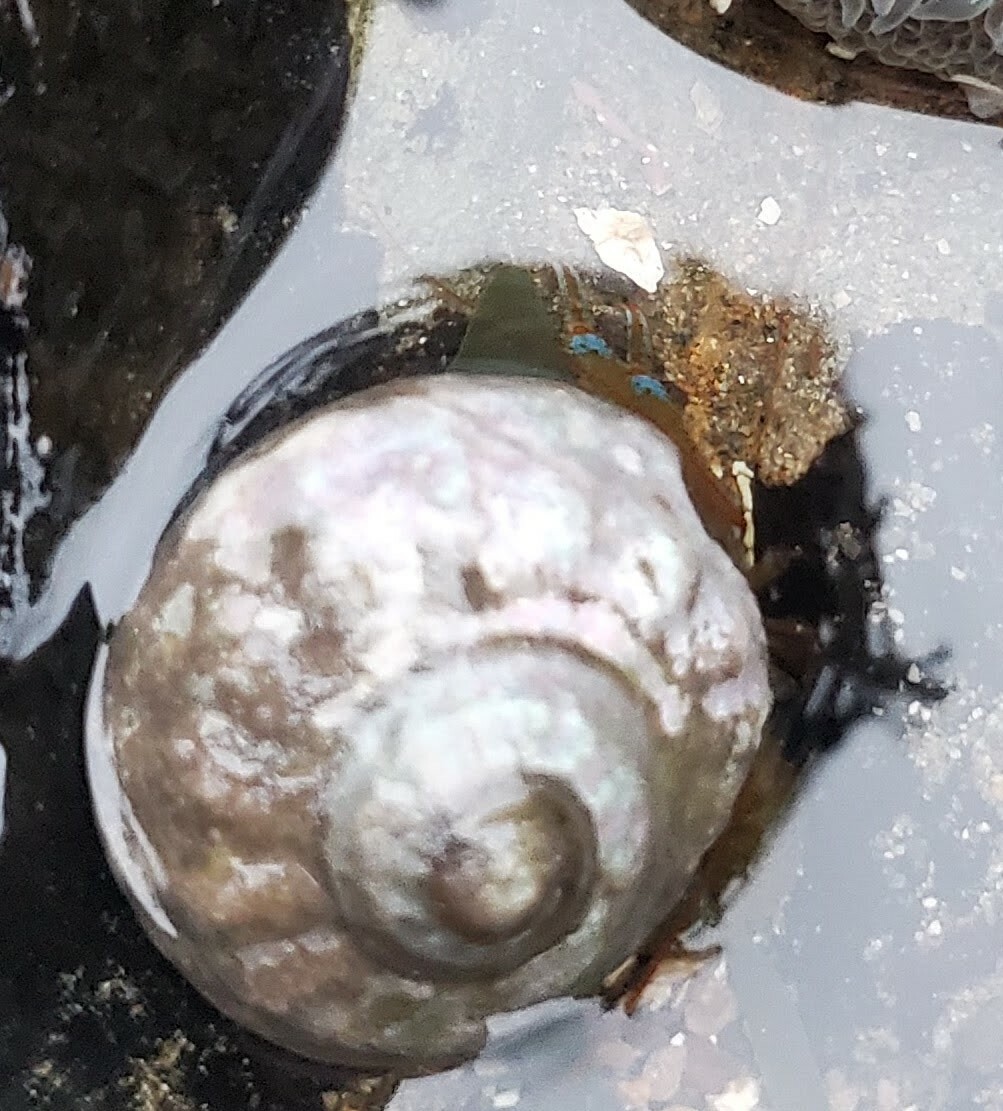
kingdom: Animalia
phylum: Arthropoda
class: Malacostraca
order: Decapoda
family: Paguridae
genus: Pagurus
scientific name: Pagurus samuelis
